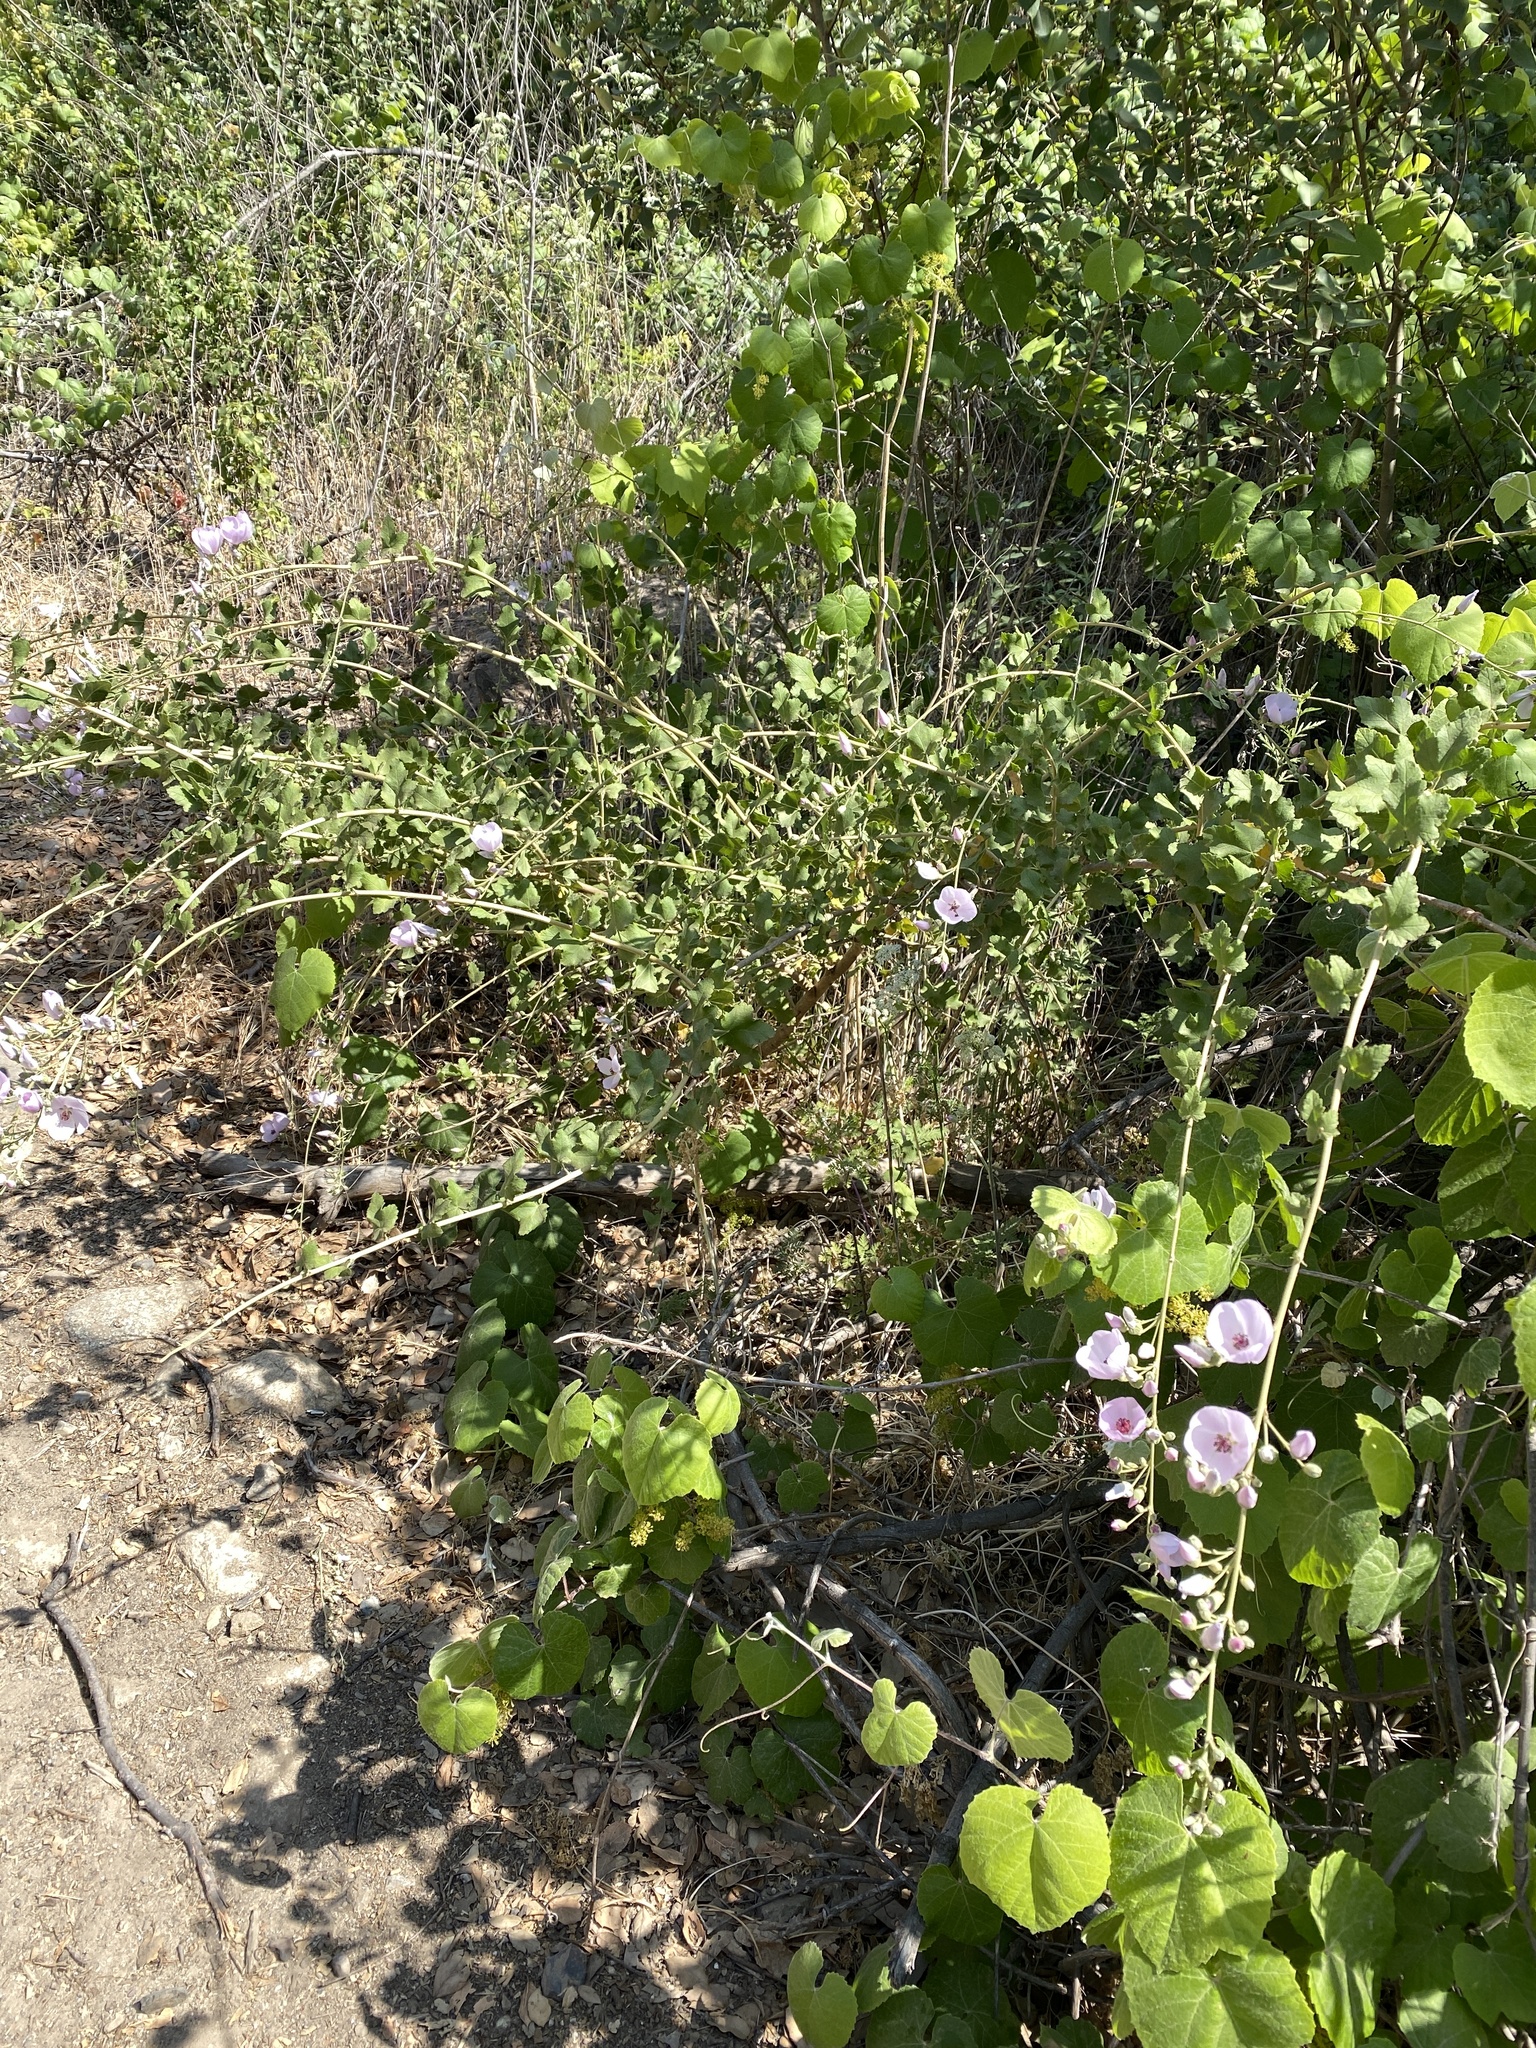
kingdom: Plantae
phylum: Tracheophyta
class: Magnoliopsida
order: Malvales
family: Malvaceae
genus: Malacothamnus
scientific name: Malacothamnus fasciculatus
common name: Sant cruz island bush-mallow
